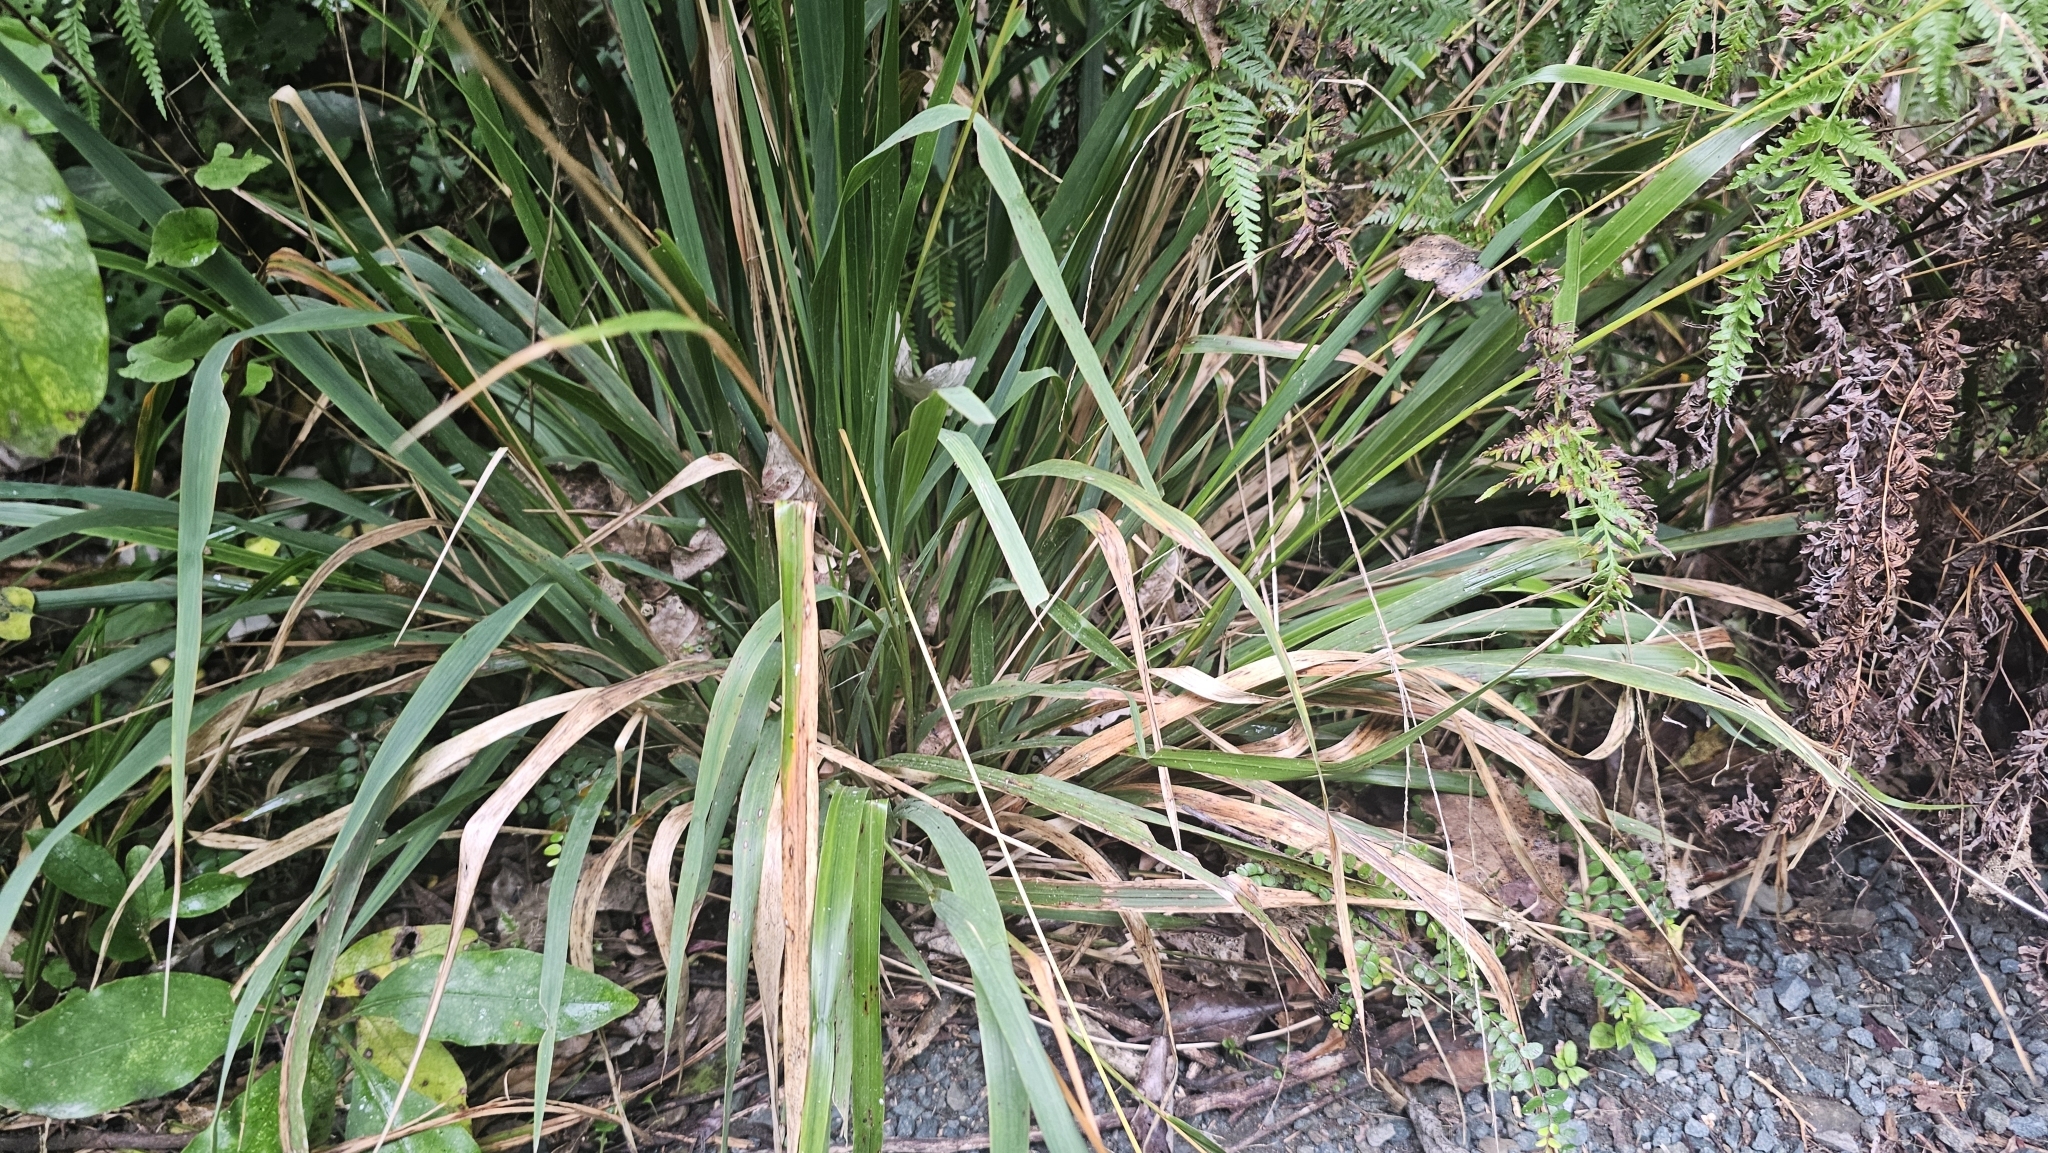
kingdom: Plantae
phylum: Tracheophyta
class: Liliopsida
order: Poales
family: Poaceae
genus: Ehrharta
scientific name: Ehrharta diplax
